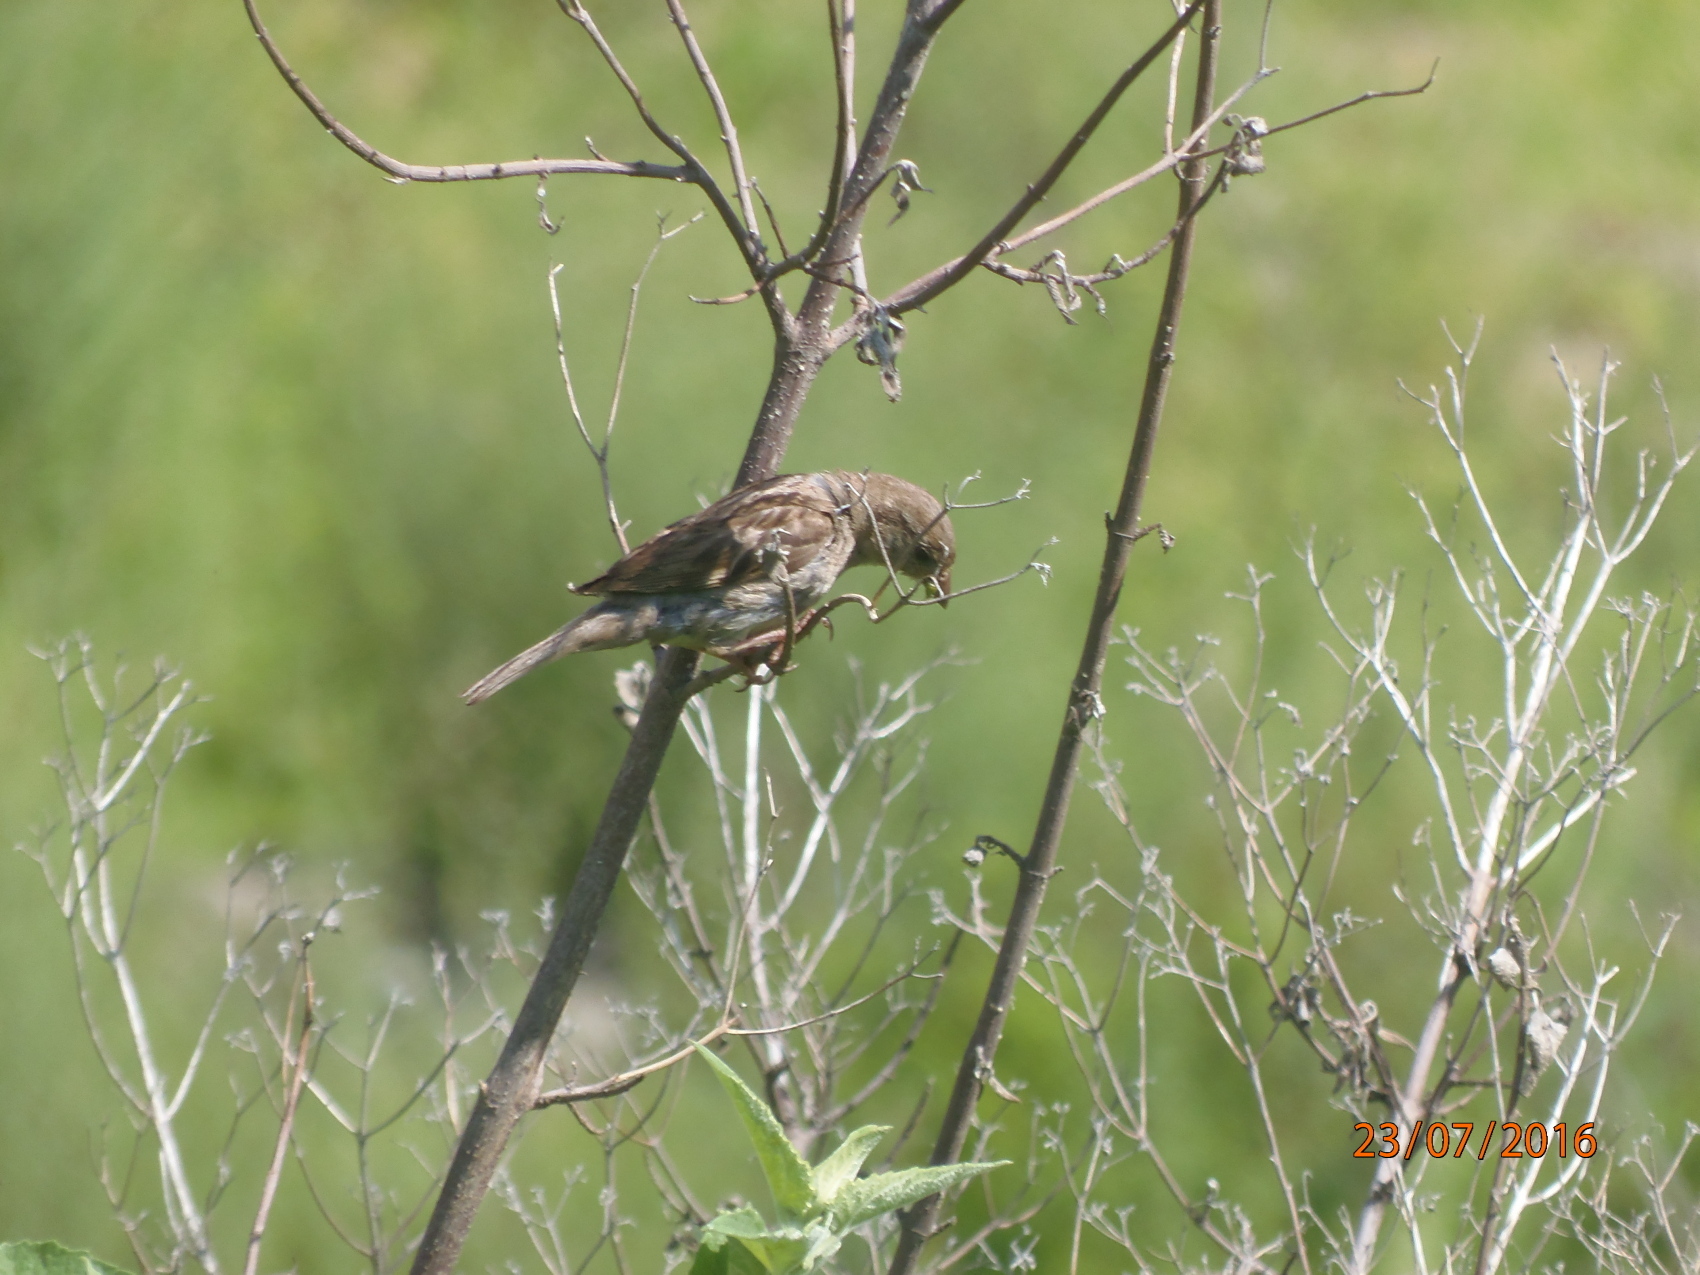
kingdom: Animalia
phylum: Chordata
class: Aves
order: Passeriformes
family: Passeridae
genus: Passer
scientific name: Passer domesticus
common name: House sparrow
